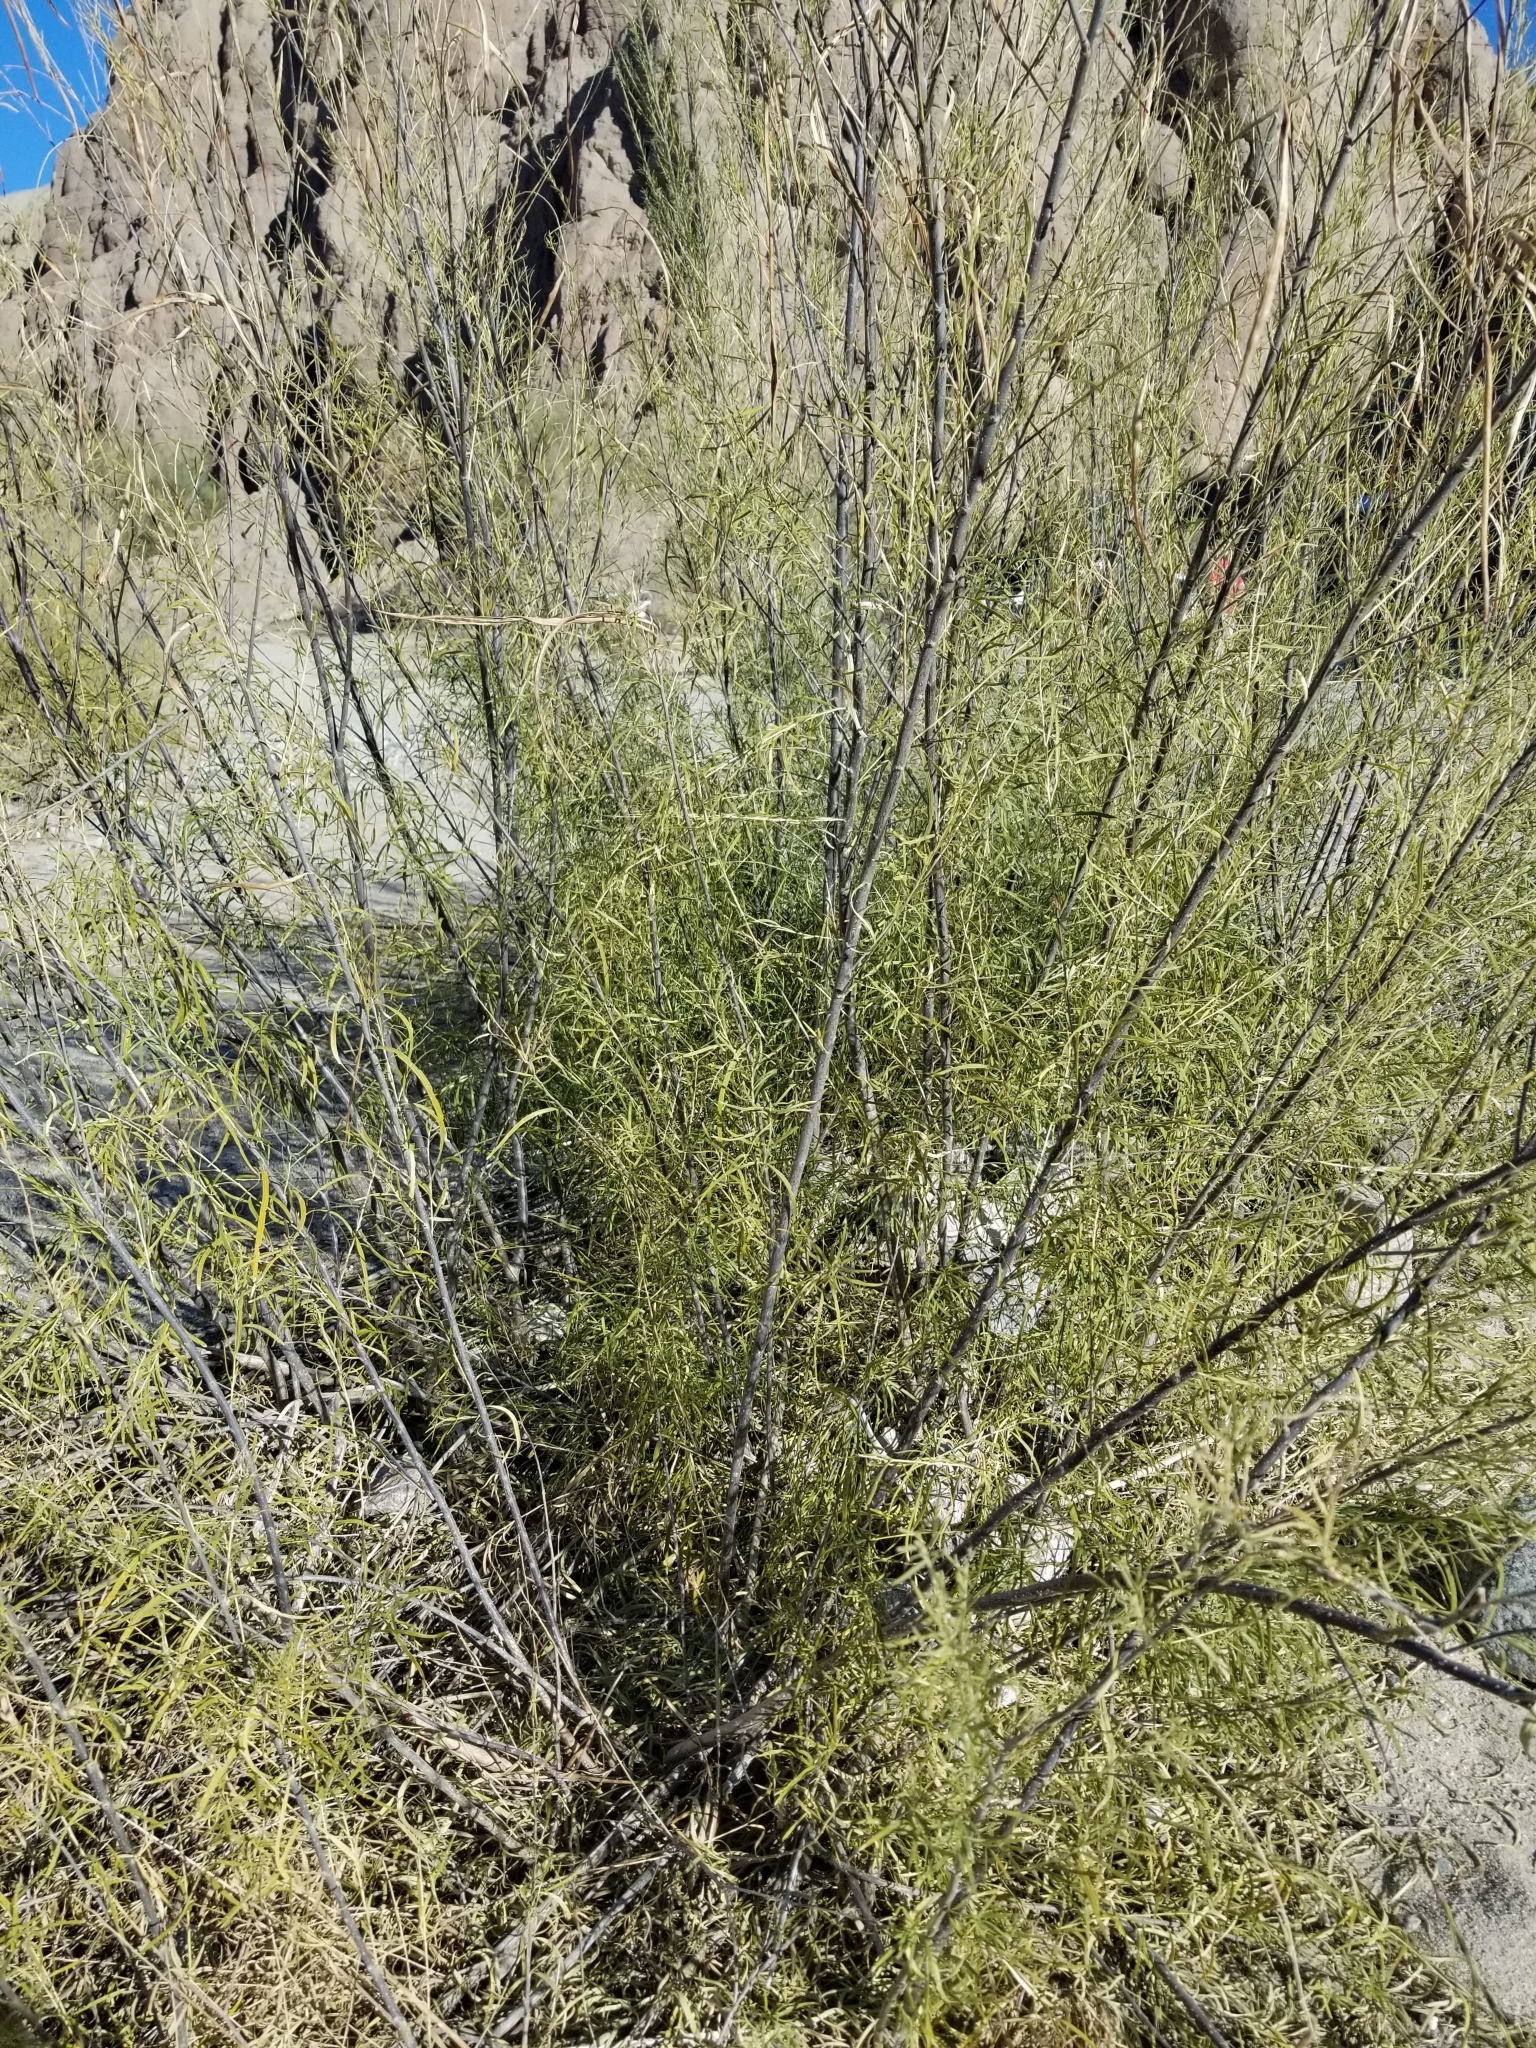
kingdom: Plantae
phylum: Tracheophyta
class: Magnoliopsida
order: Lamiales
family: Bignoniaceae
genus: Chilopsis
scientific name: Chilopsis linearis
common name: Desert-willow
